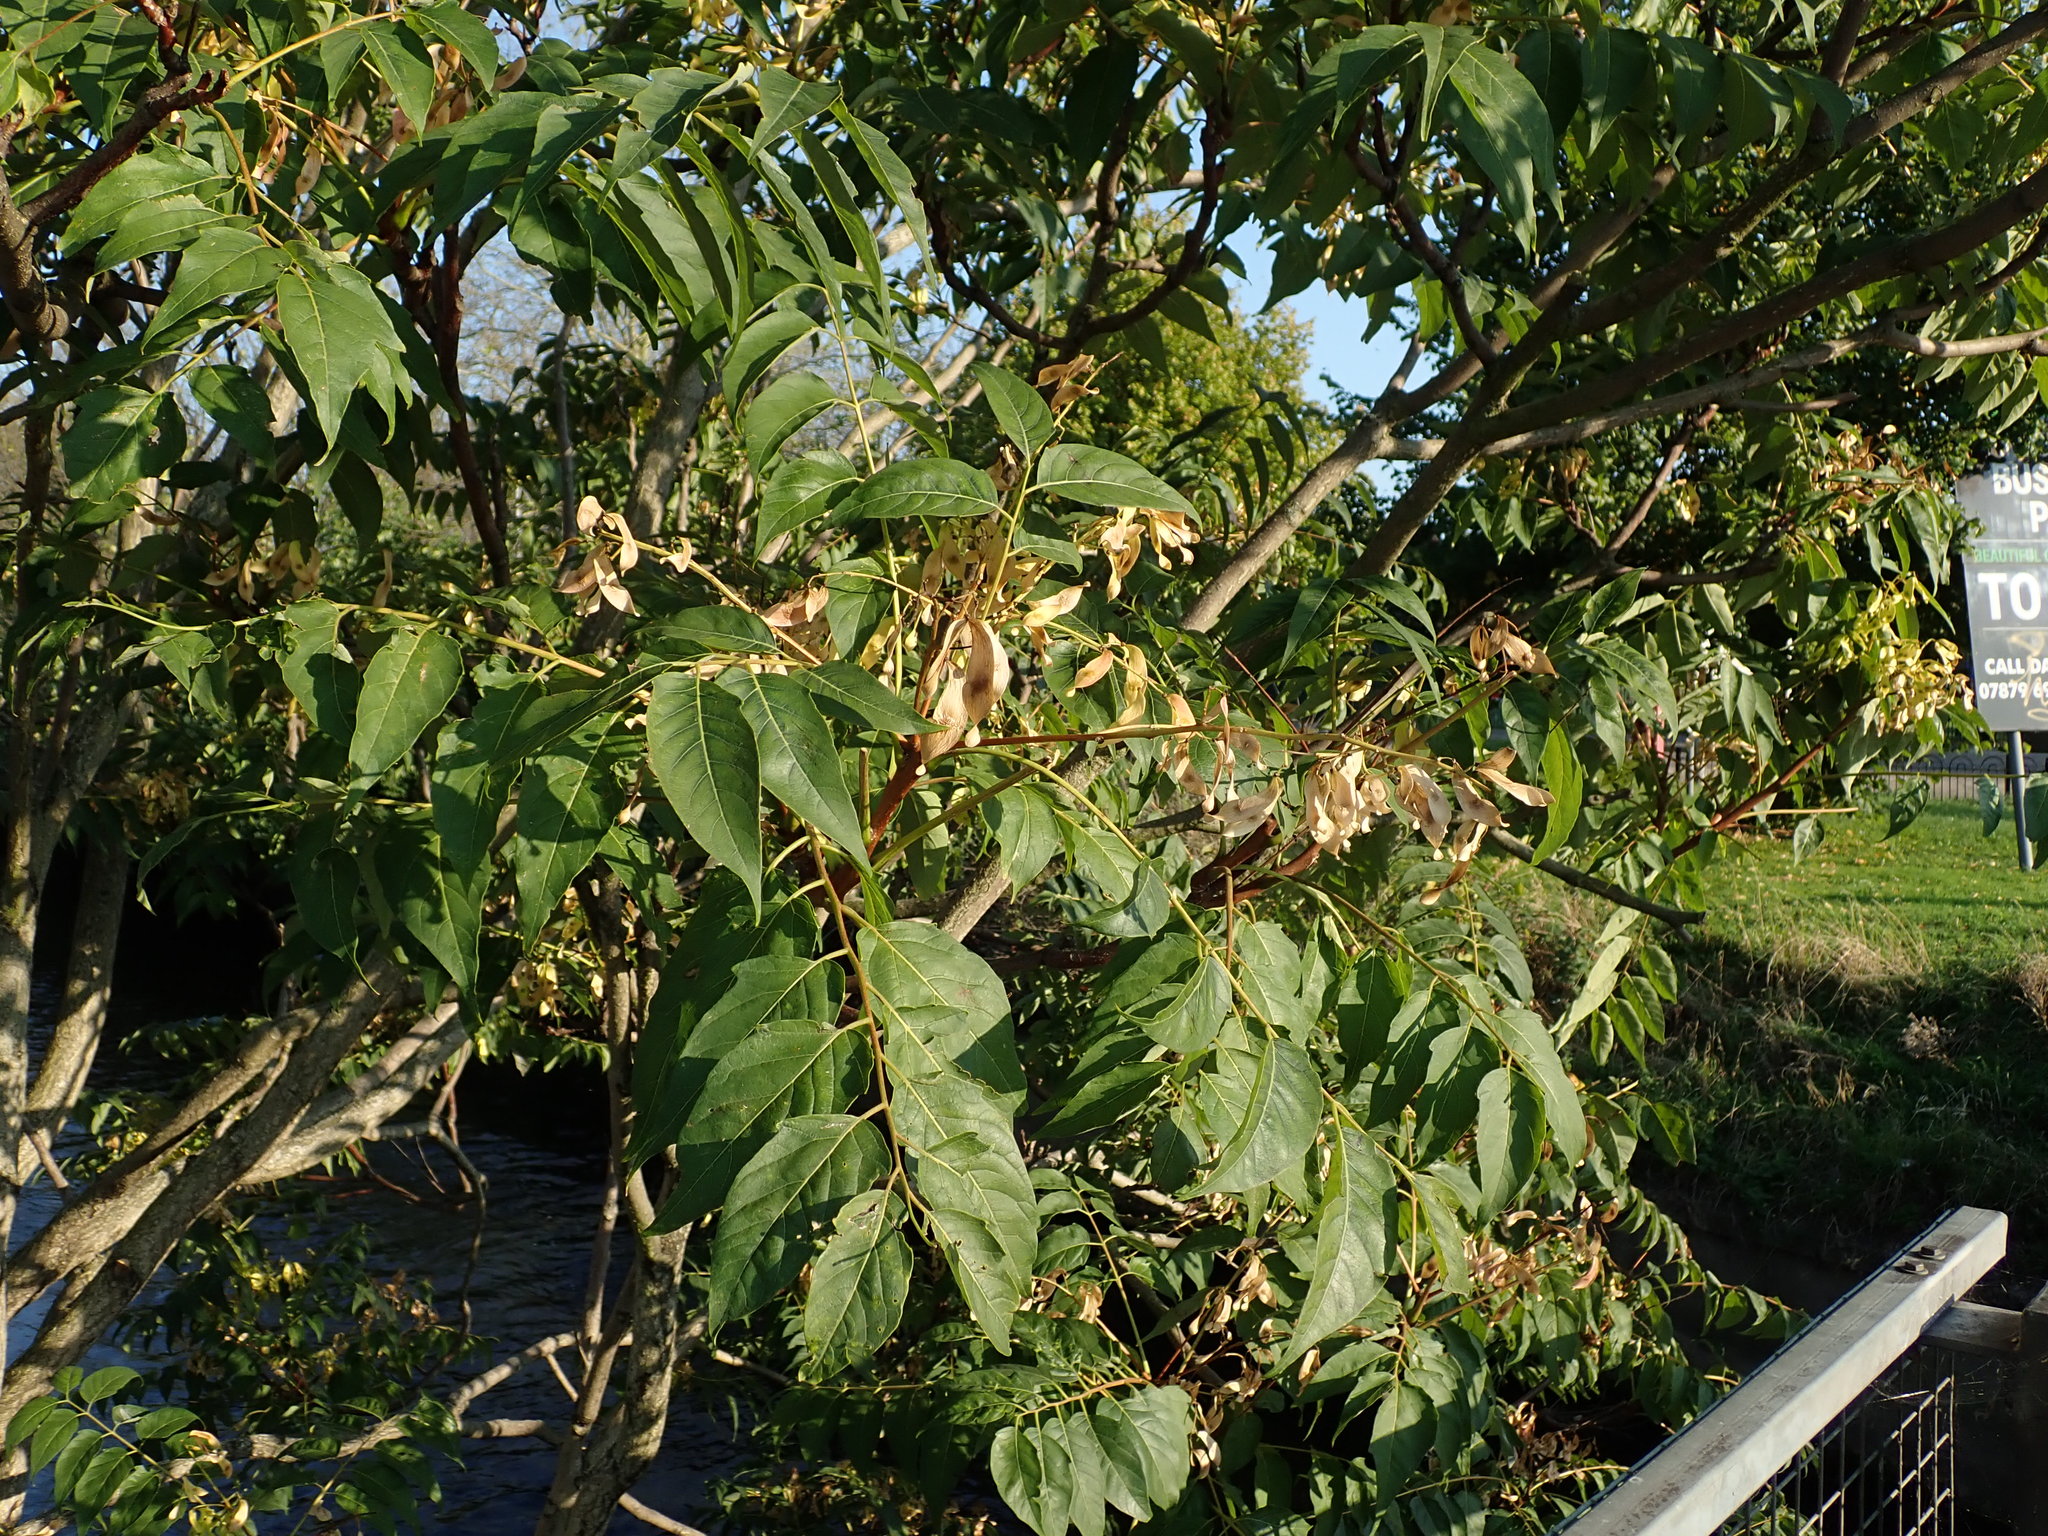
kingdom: Plantae
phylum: Tracheophyta
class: Magnoliopsida
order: Sapindales
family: Simaroubaceae
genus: Ailanthus
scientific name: Ailanthus altissima
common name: Tree-of-heaven
